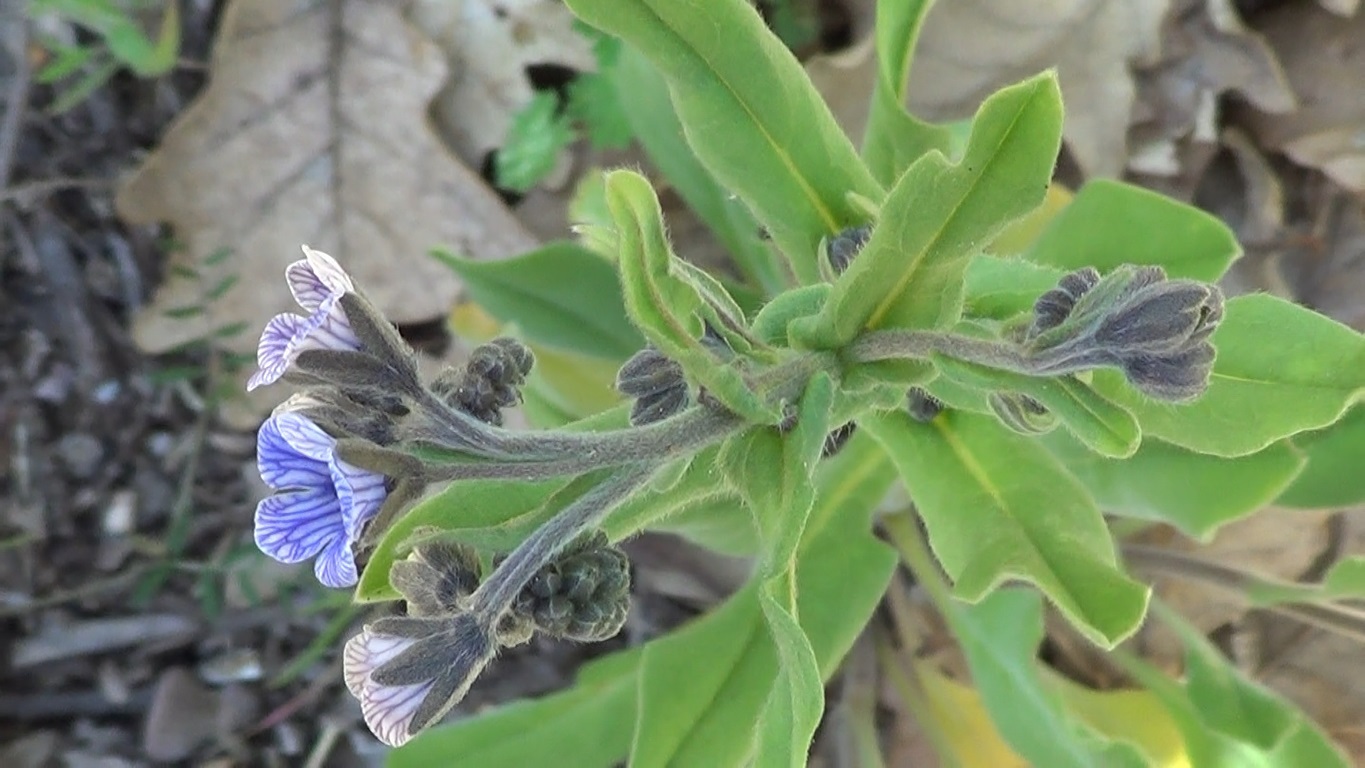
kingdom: Plantae
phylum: Tracheophyta
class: Magnoliopsida
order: Boraginales
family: Boraginaceae
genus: Cynoglossum
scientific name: Cynoglossum creticum
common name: Blue hound's tongue
